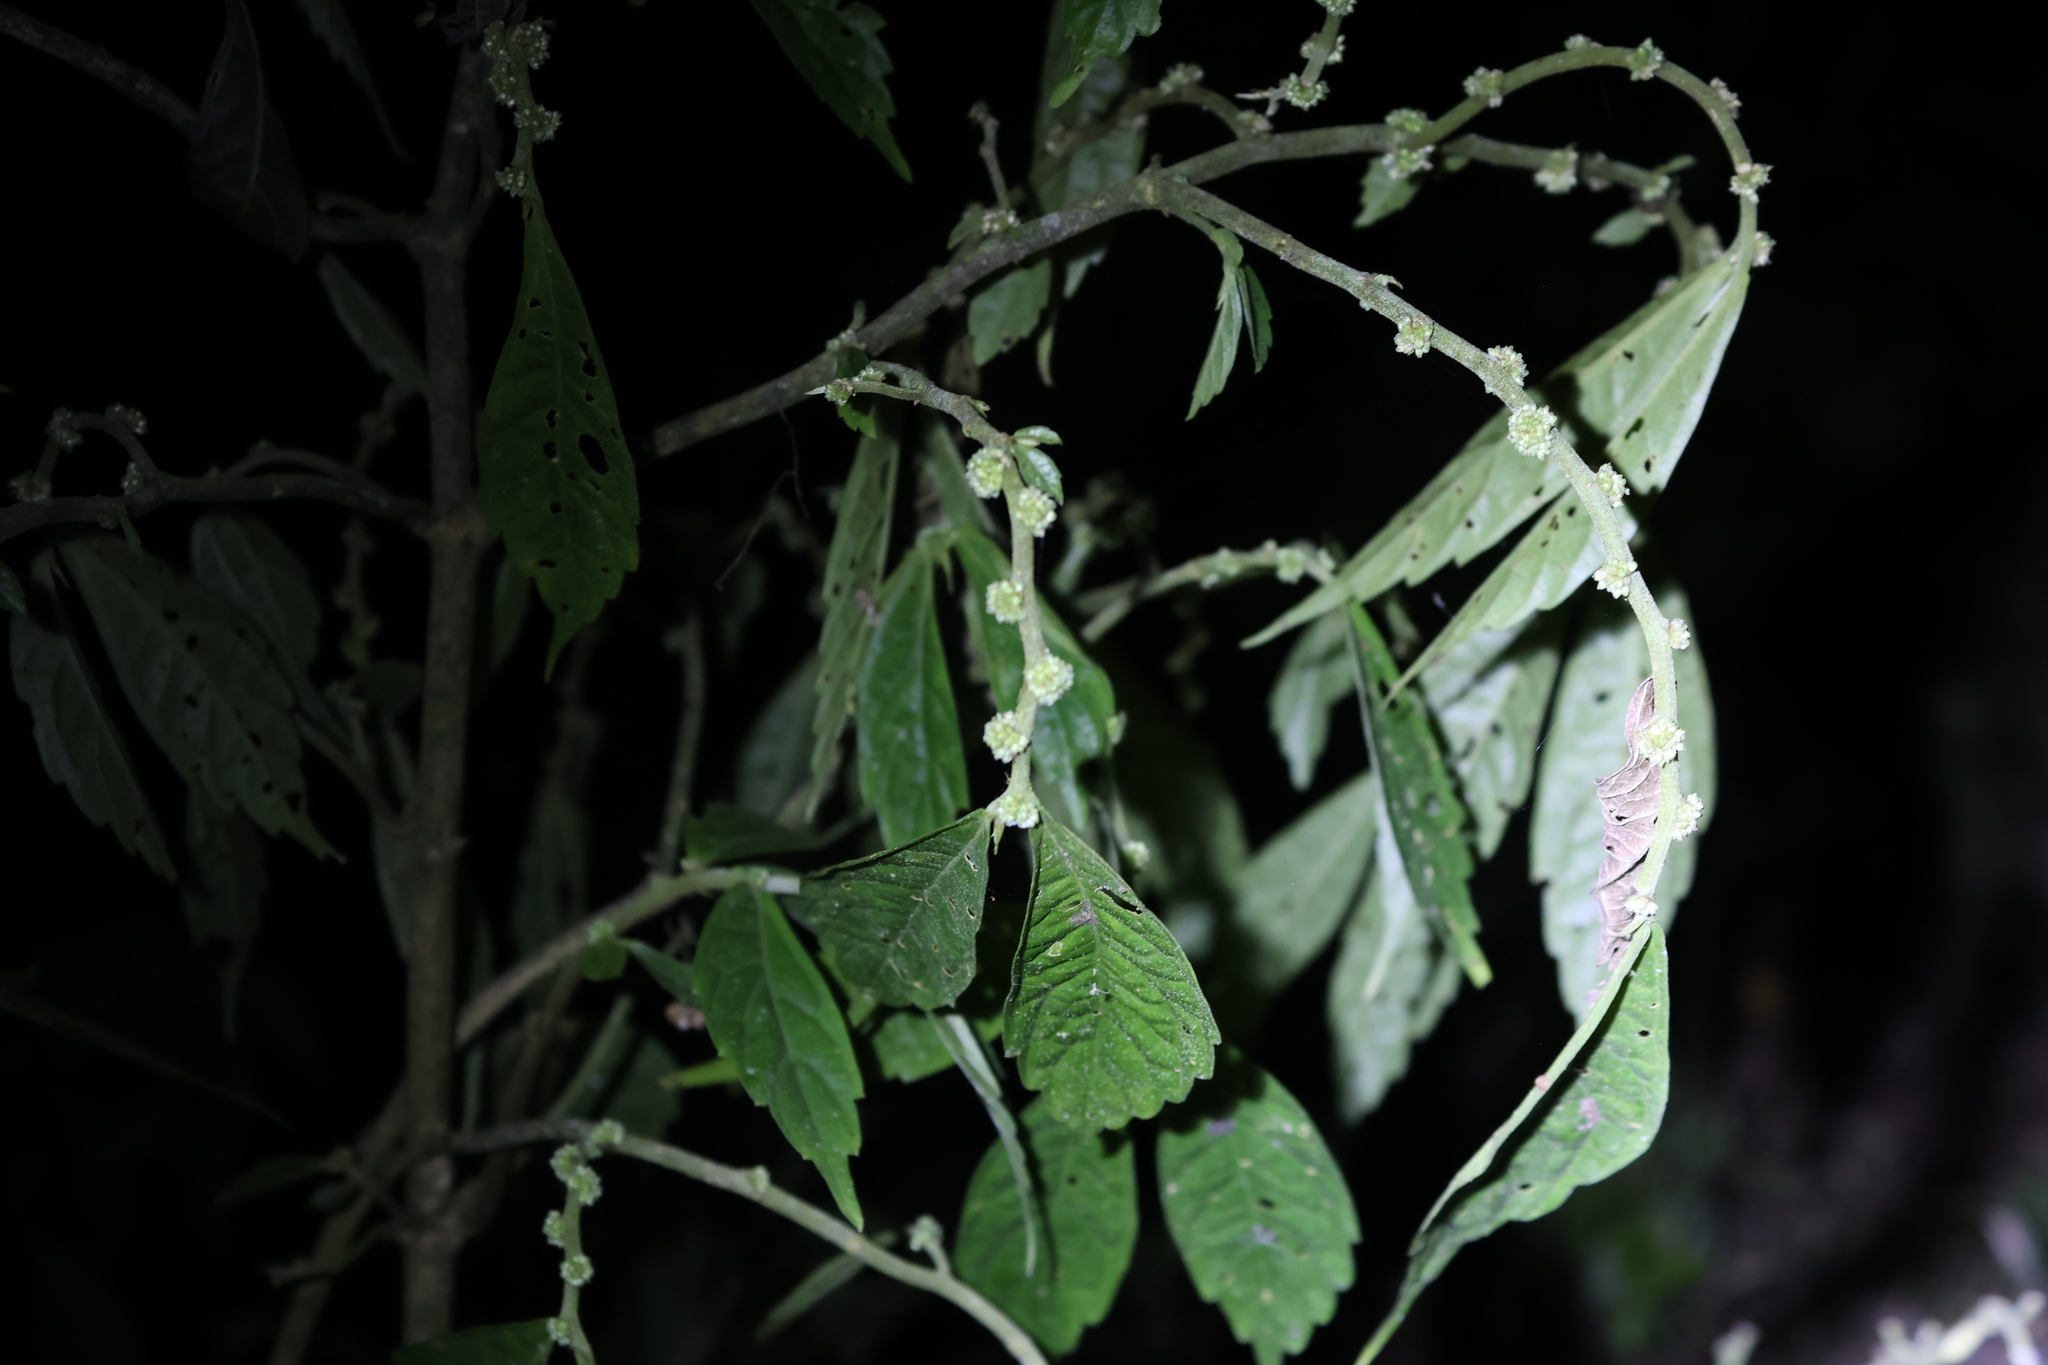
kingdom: Plantae
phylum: Tracheophyta
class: Magnoliopsida
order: Rosales
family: Urticaceae
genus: Elatostema
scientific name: Elatostema lineolatum
